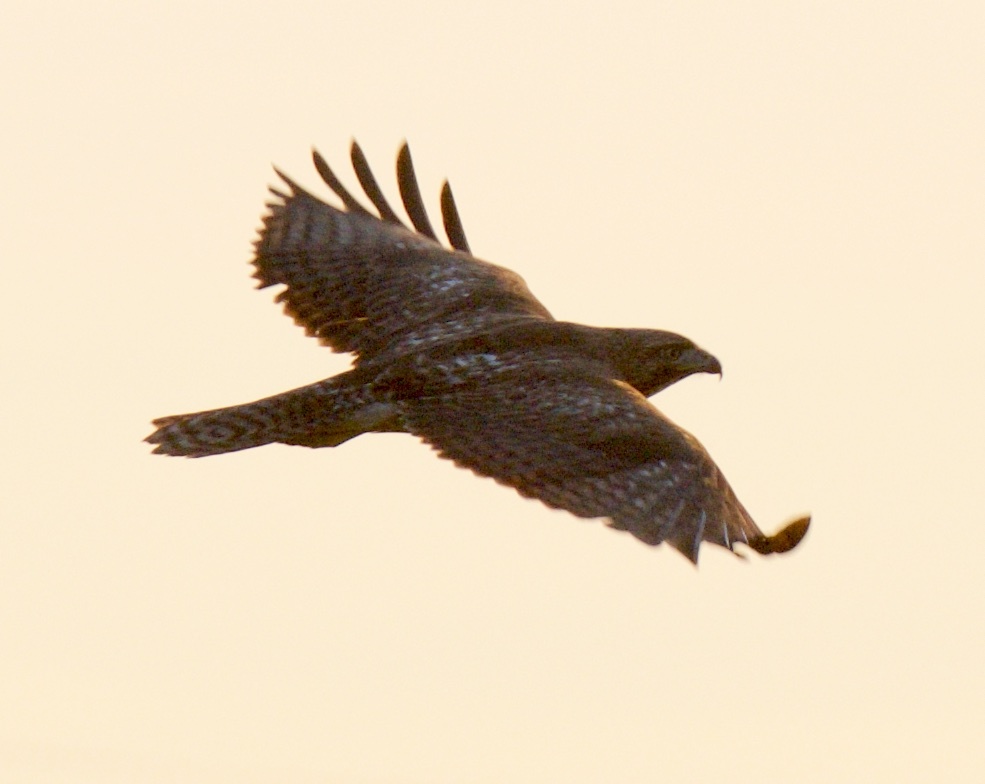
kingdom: Animalia
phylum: Chordata
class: Aves
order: Accipitriformes
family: Accipitridae
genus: Buteo
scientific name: Buteo jamaicensis
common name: Red-tailed hawk
